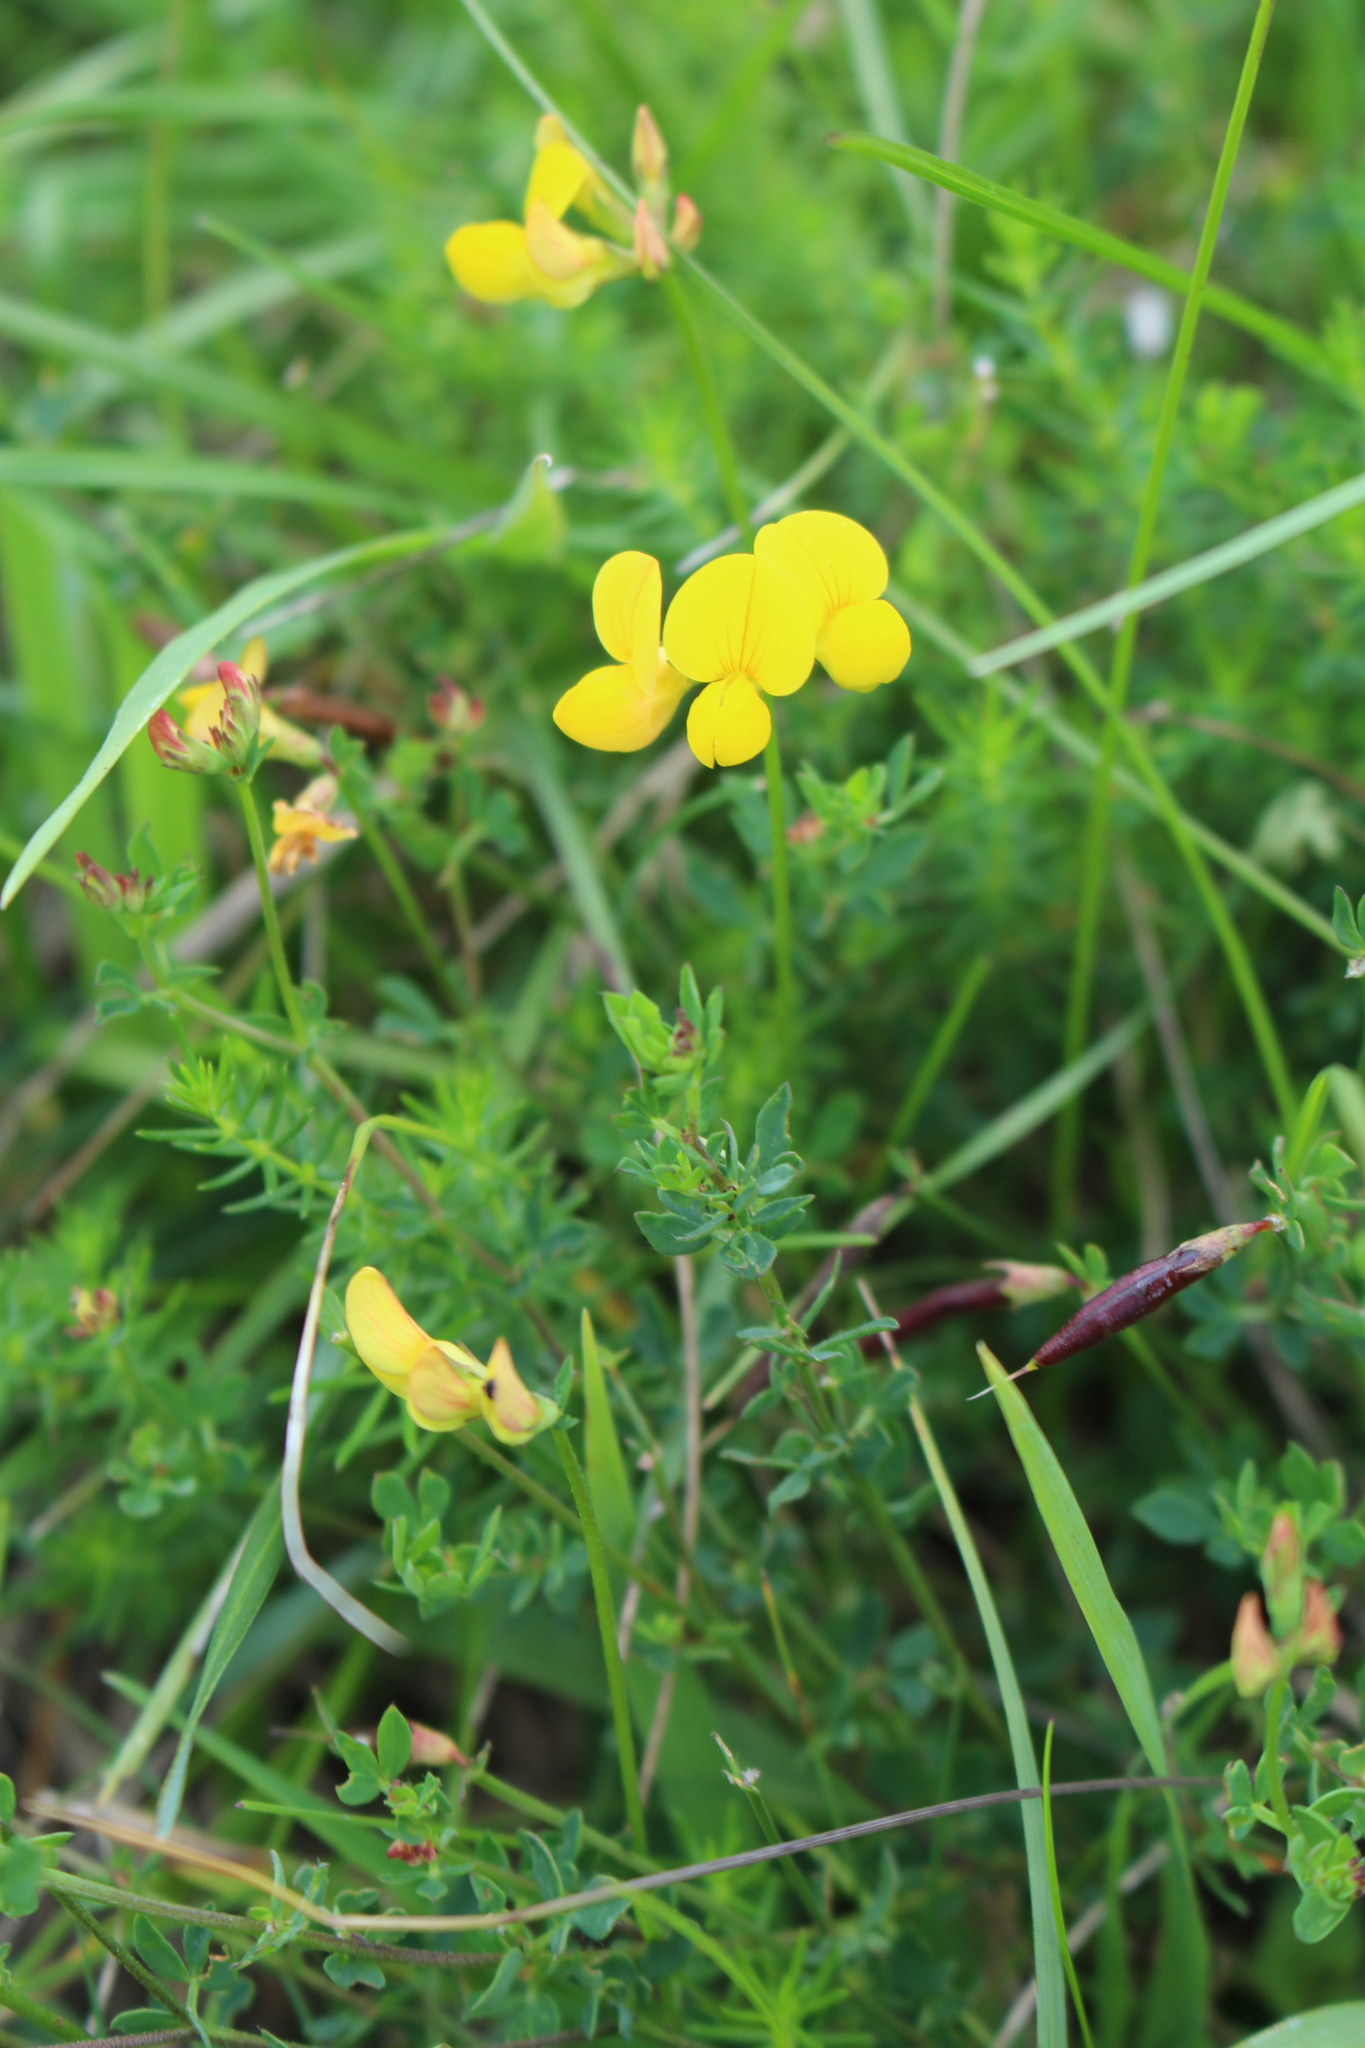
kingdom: Plantae
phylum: Tracheophyta
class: Magnoliopsida
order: Fabales
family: Fabaceae
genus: Lotus
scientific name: Lotus corniculatus
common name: Common bird's-foot-trefoil
